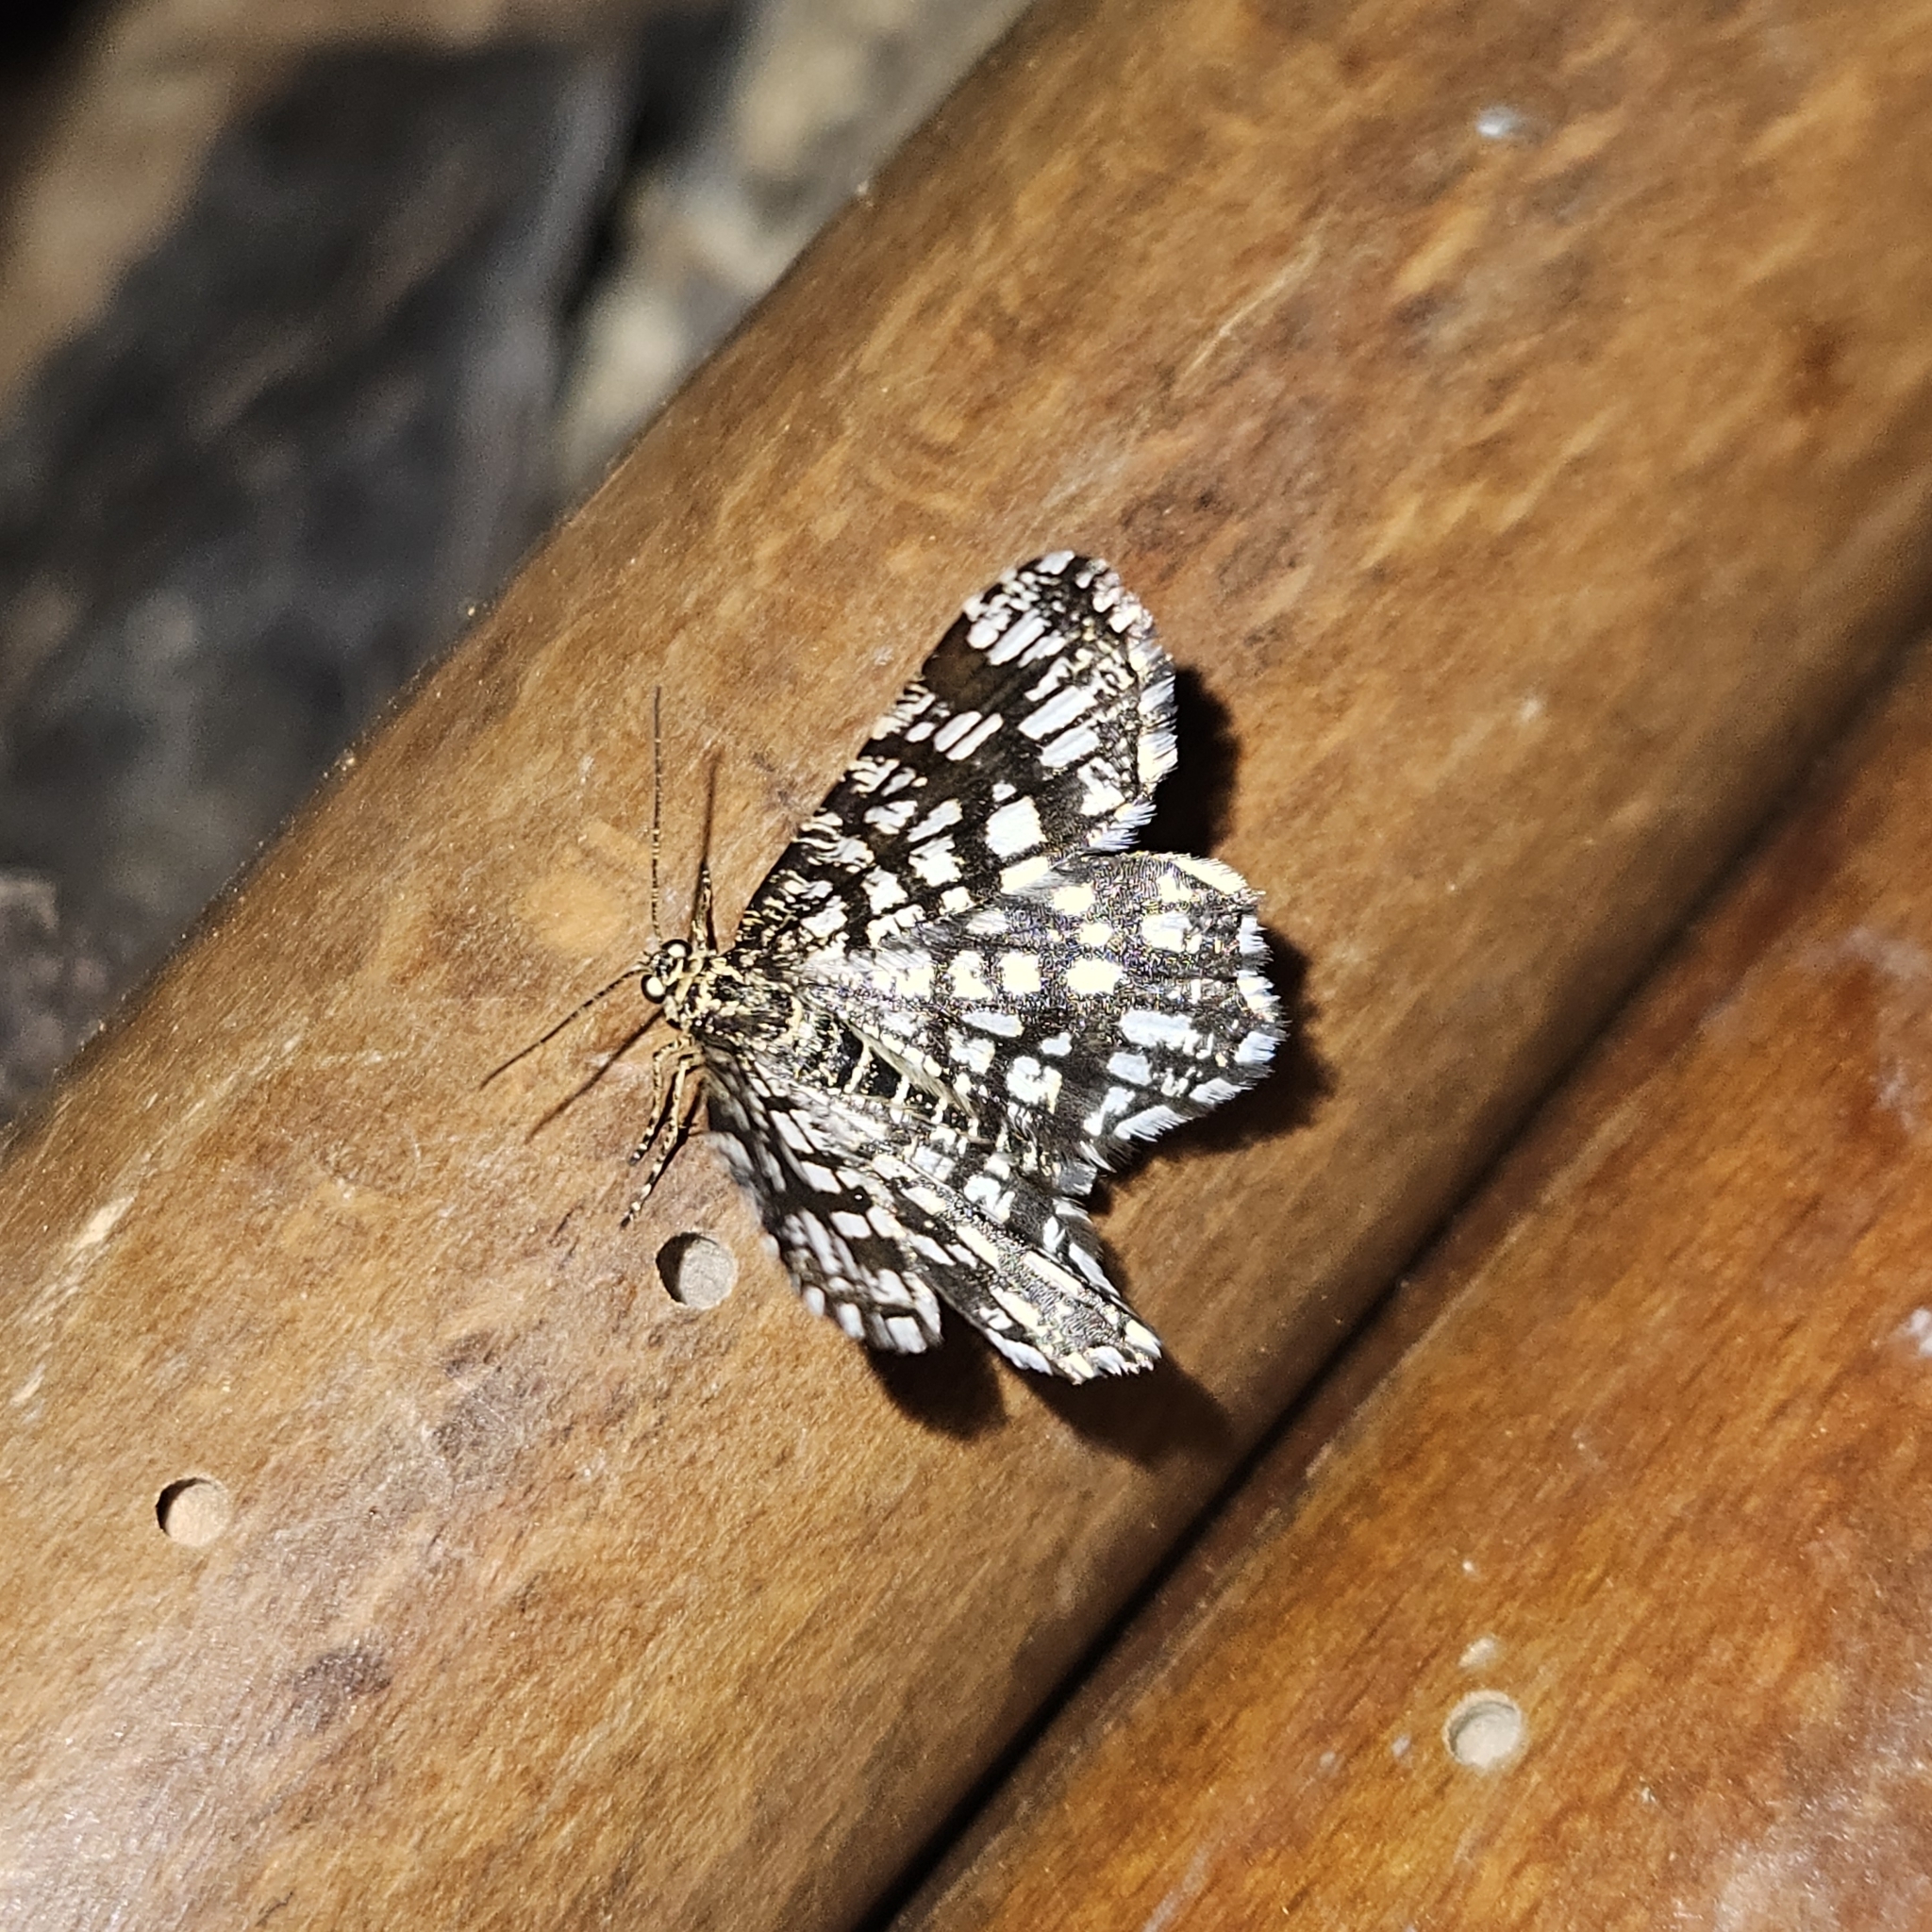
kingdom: Animalia
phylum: Arthropoda
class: Insecta
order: Lepidoptera
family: Geometridae
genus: Chiasmia
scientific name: Chiasmia clathrata
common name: Latticed heath
